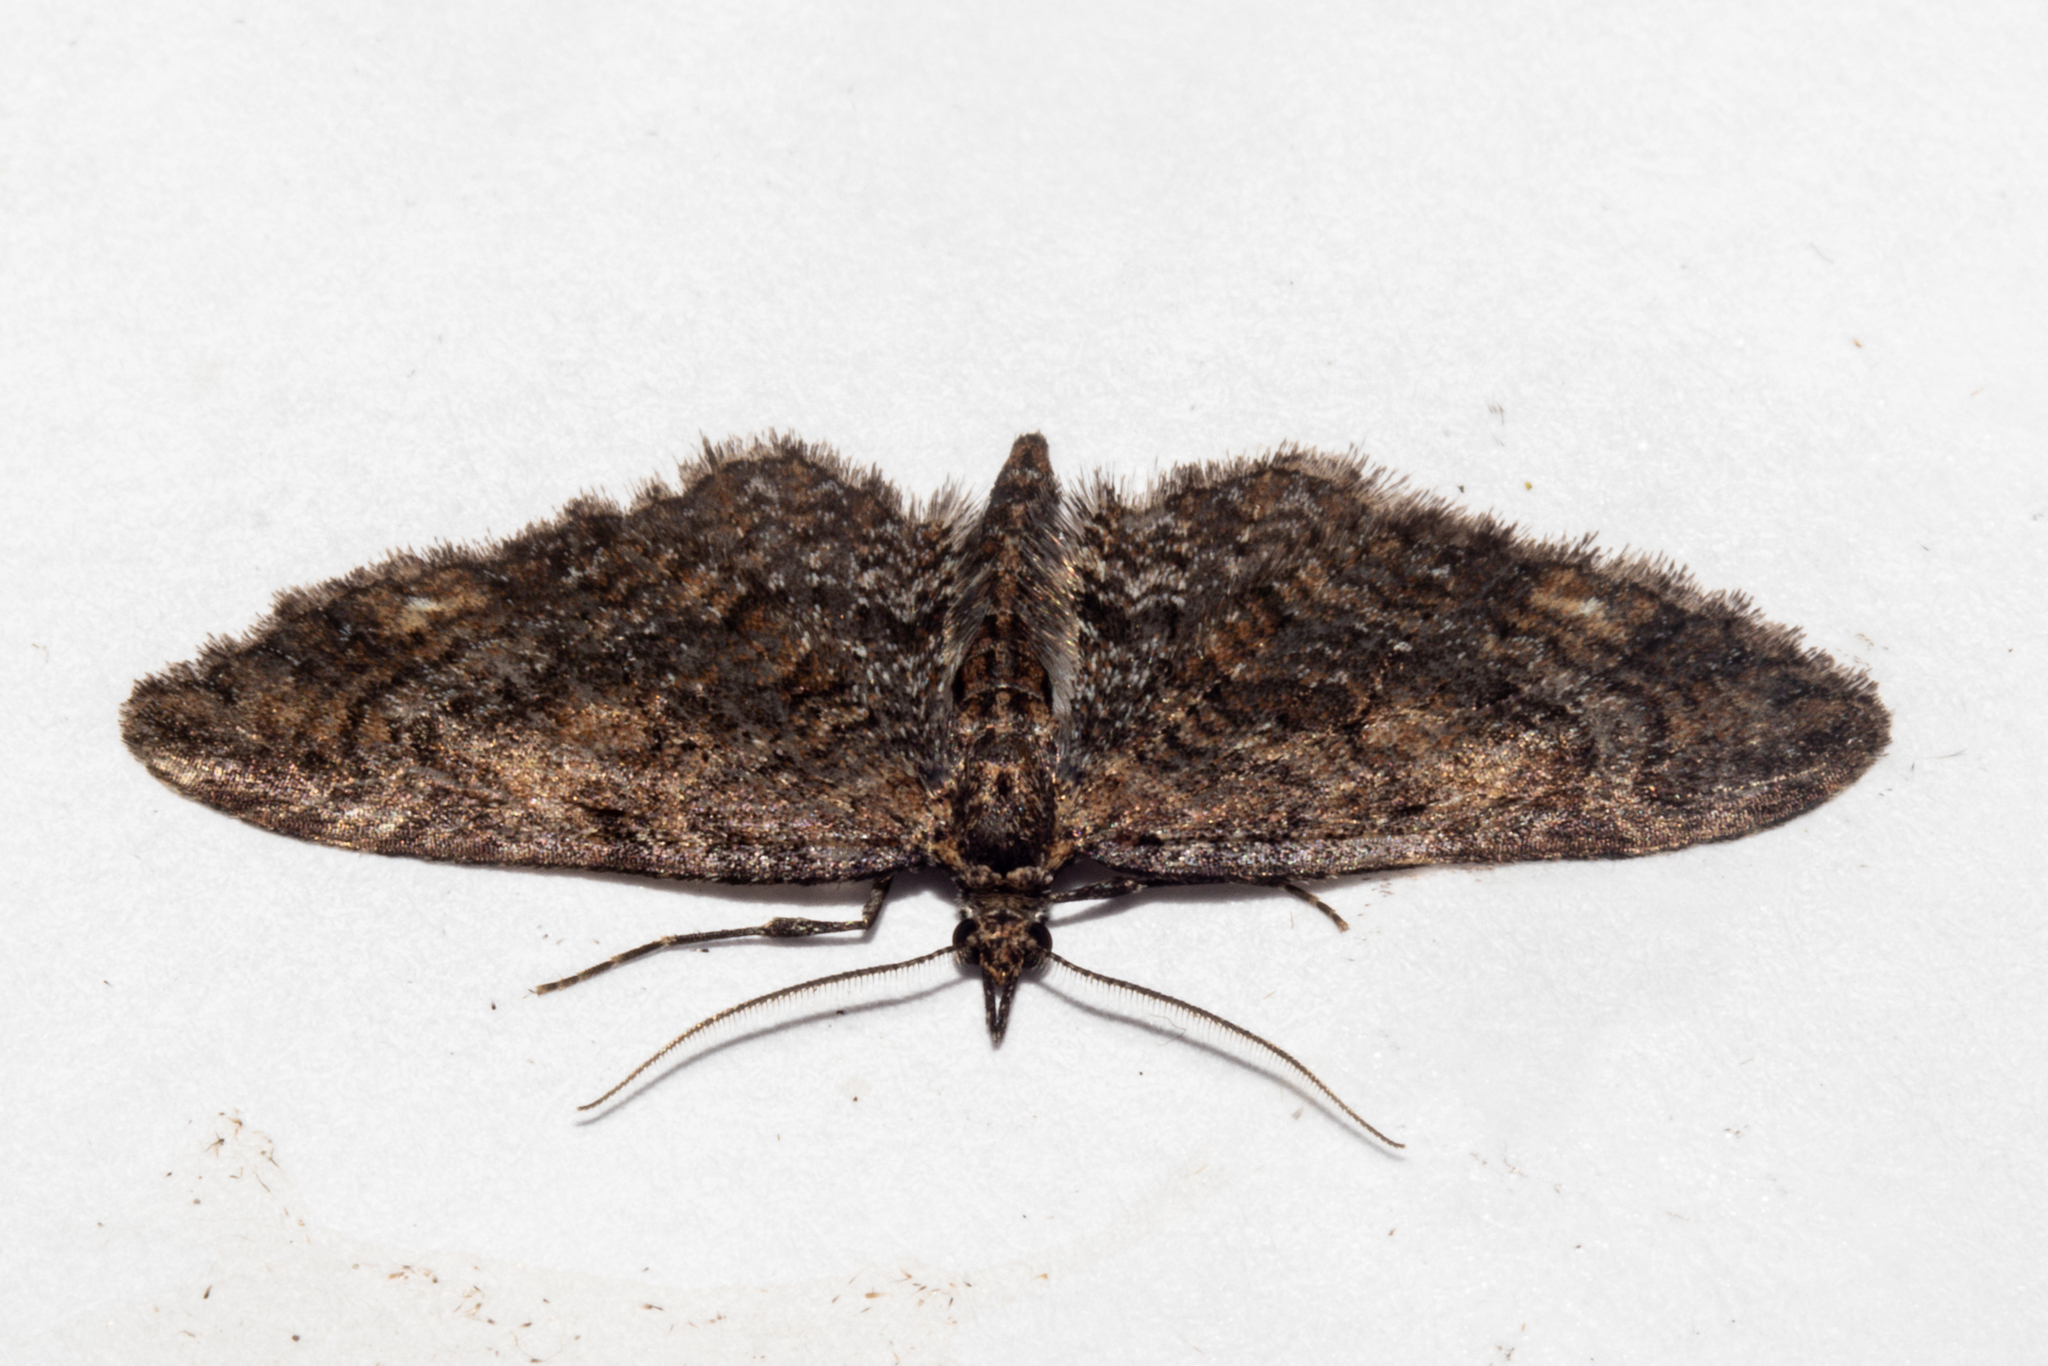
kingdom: Animalia
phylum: Arthropoda
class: Insecta
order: Lepidoptera
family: Geometridae
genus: Pasiphila
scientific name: Pasiphila dryas
